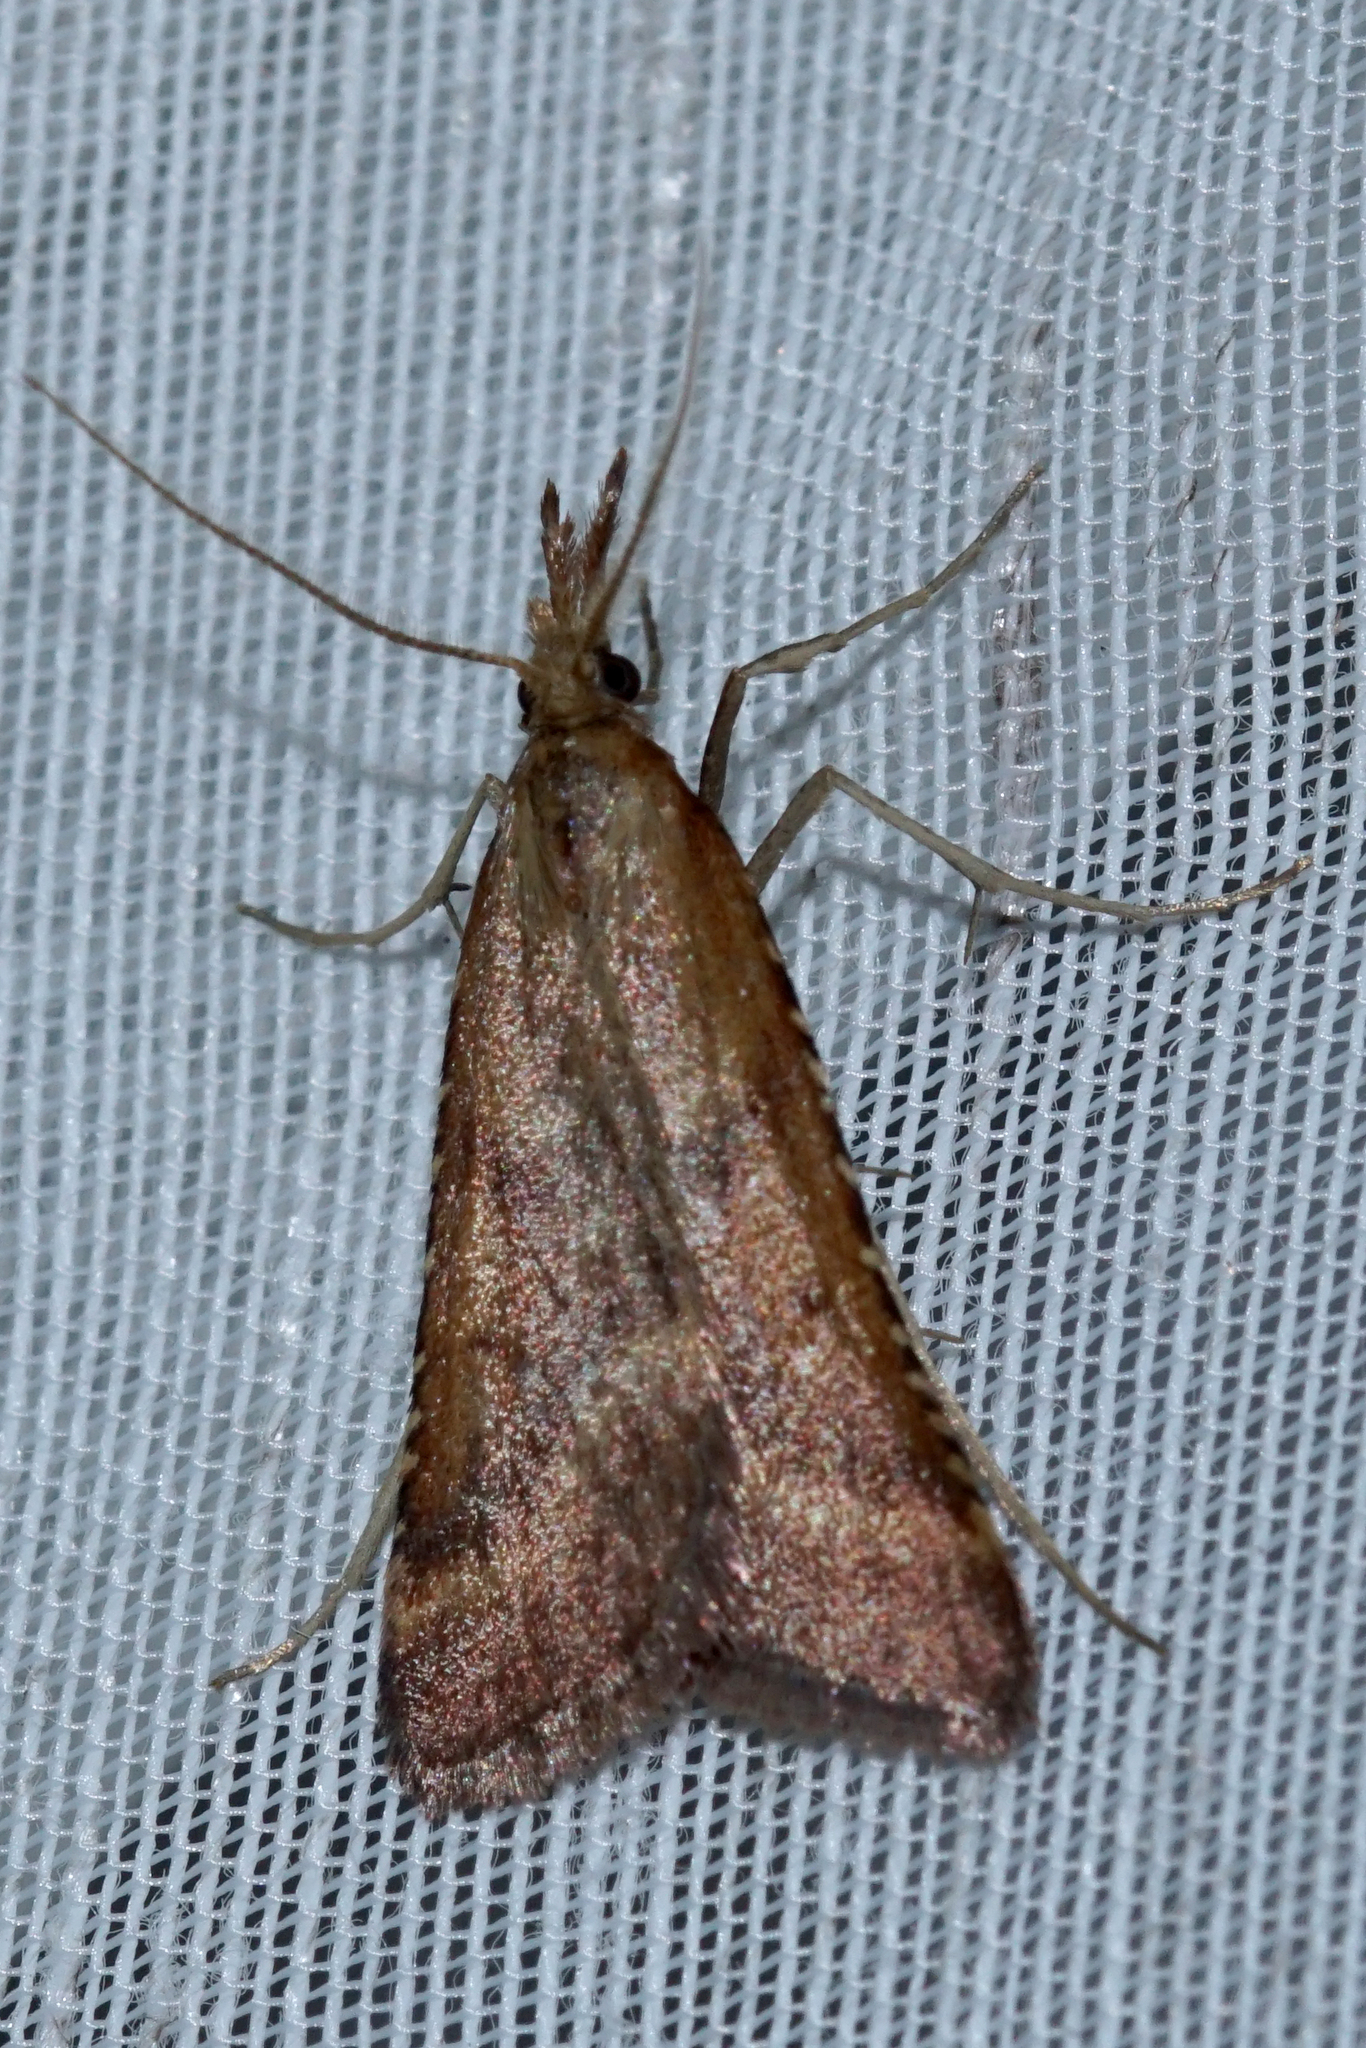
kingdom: Animalia
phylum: Arthropoda
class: Insecta
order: Lepidoptera
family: Pyralidae
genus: Synaphe
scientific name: Synaphe punctalis
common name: Long-legged tabby
